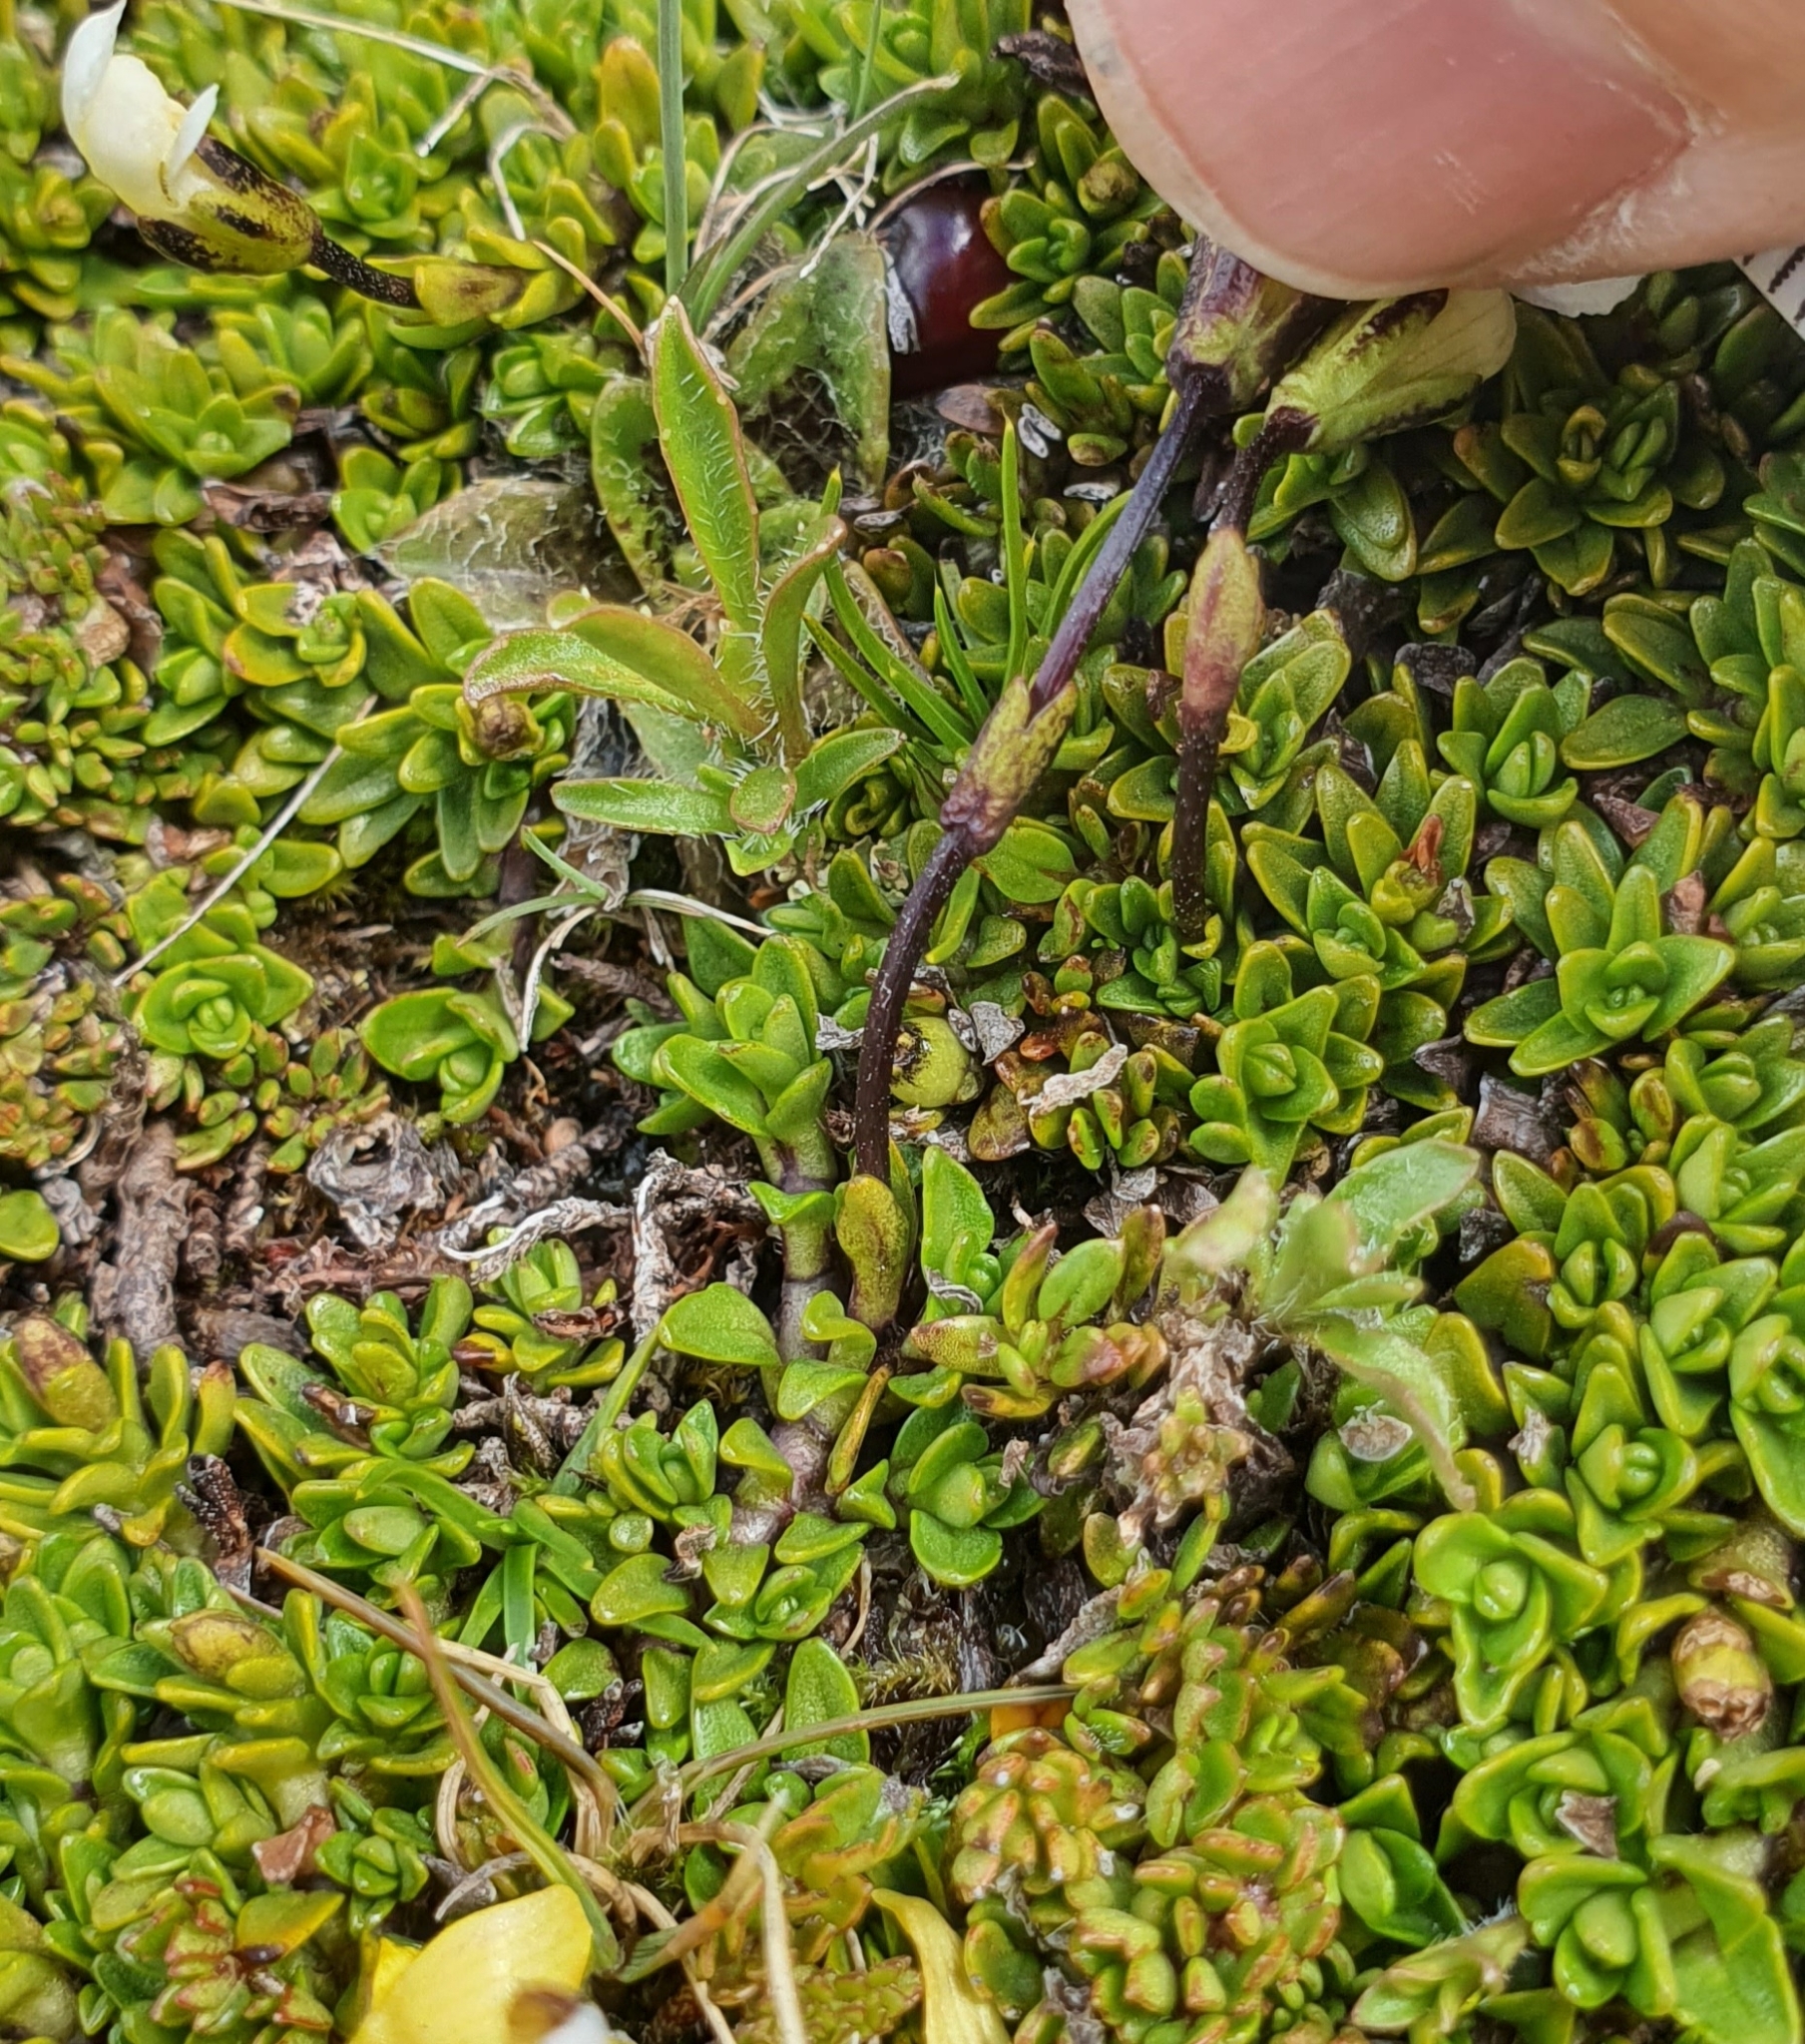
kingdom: Plantae
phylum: Tracheophyta
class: Magnoliopsida
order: Lamiales
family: Plantaginaceae
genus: Ourisia
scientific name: Ourisia caespitosa
